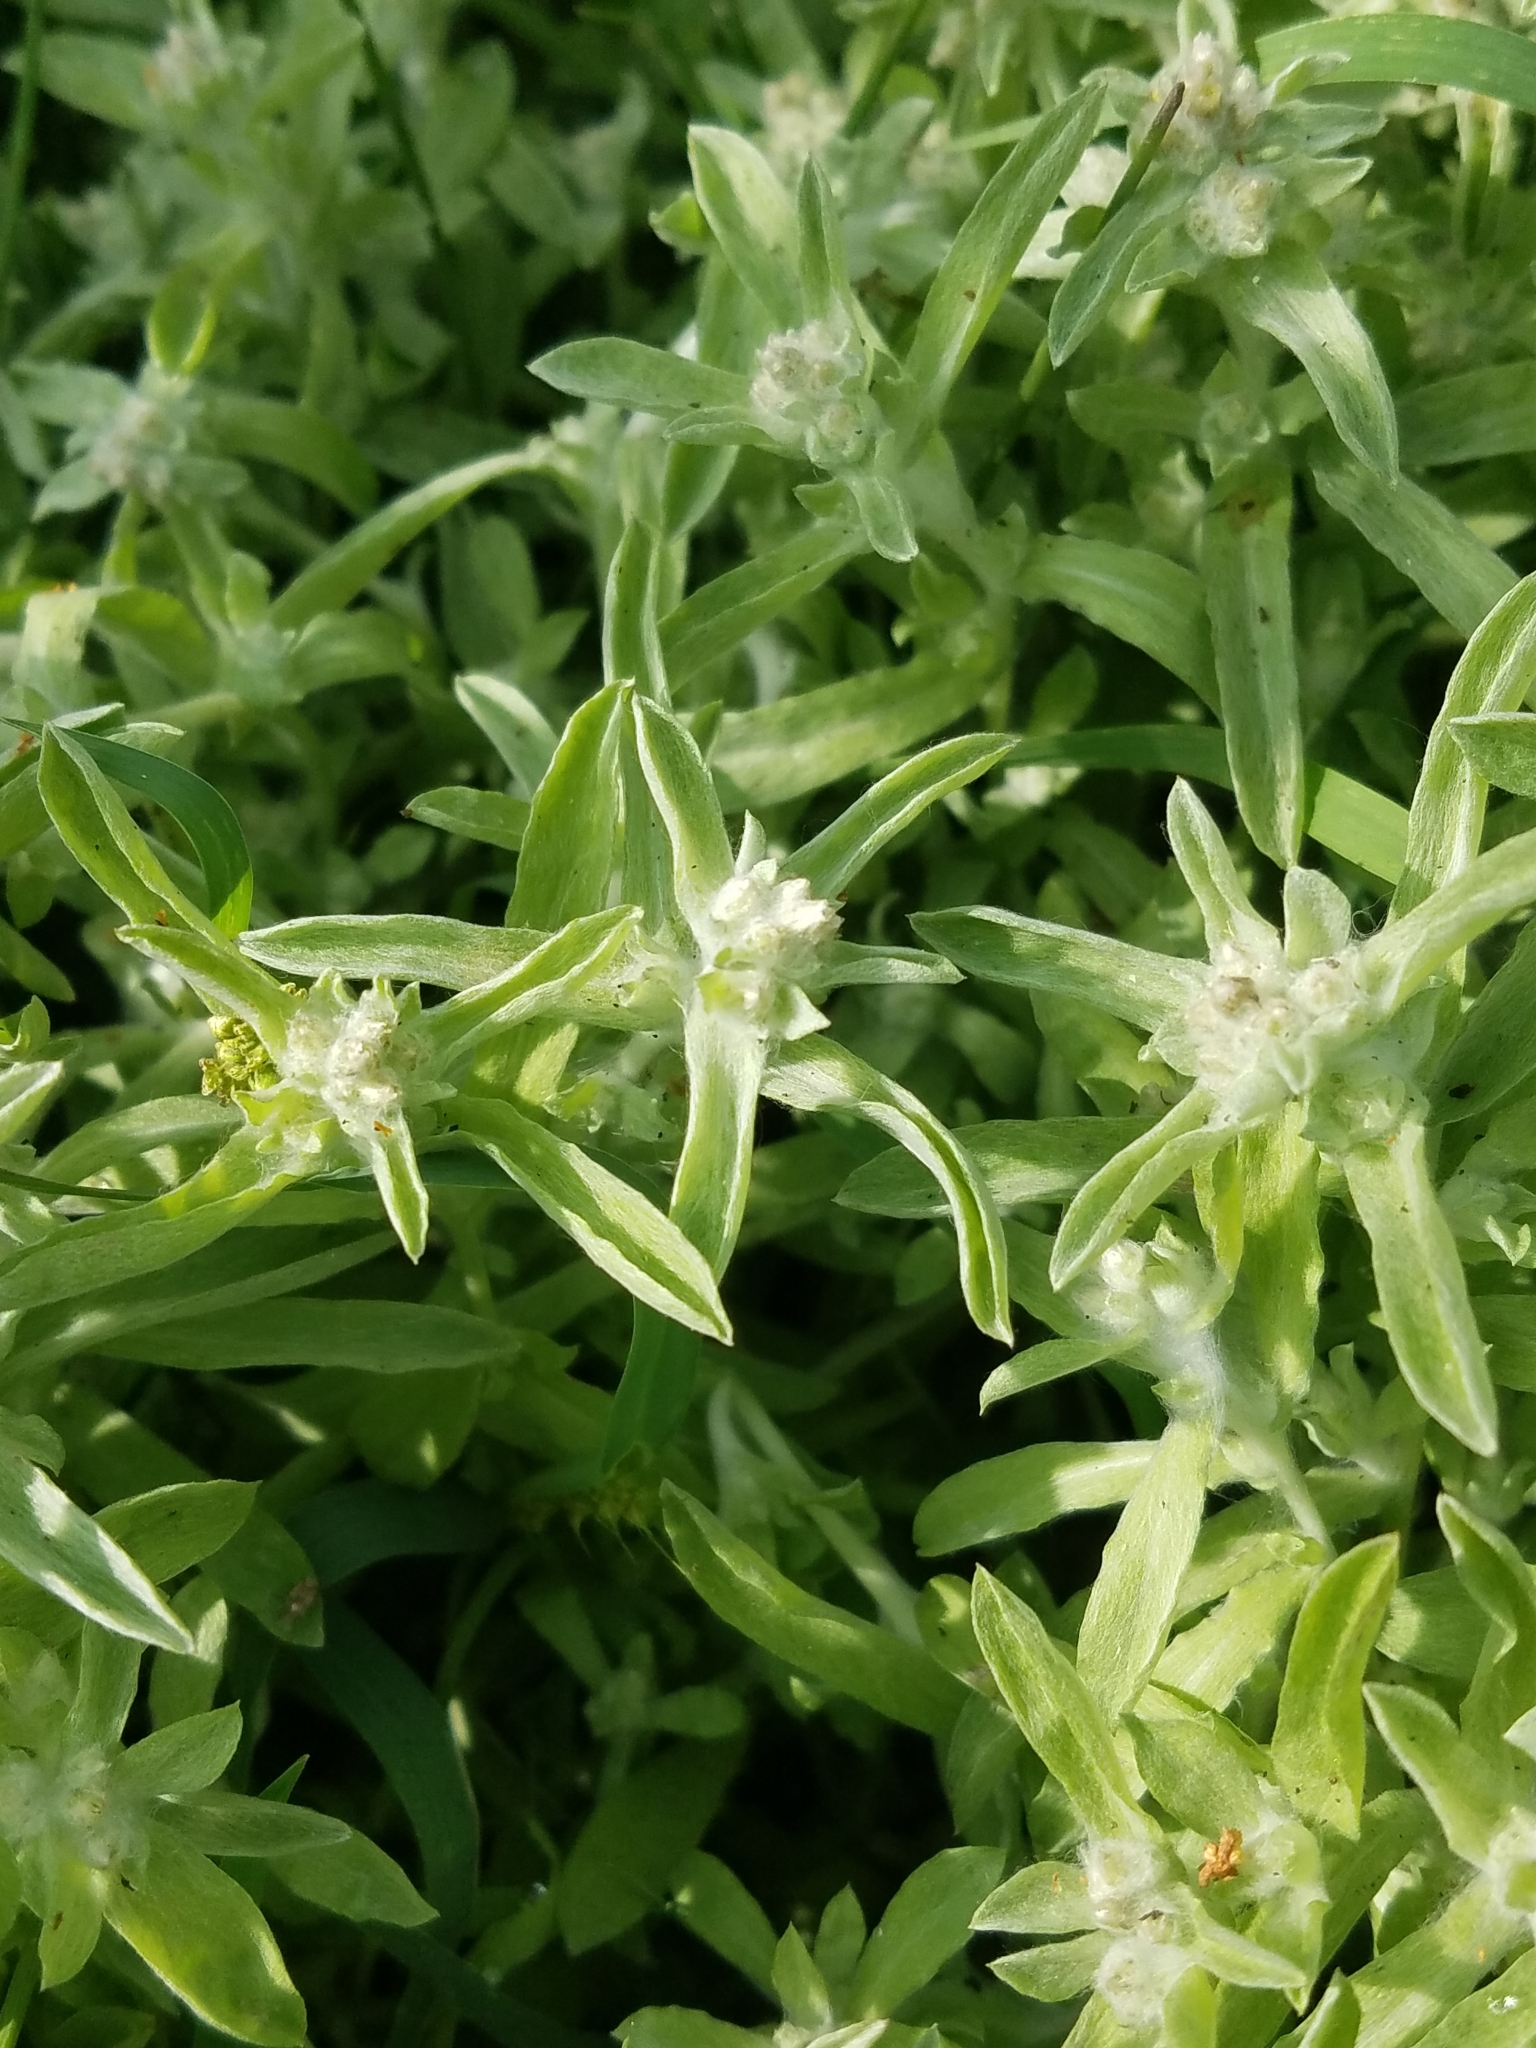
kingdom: Plantae
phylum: Tracheophyta
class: Magnoliopsida
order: Asterales
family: Asteraceae
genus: Gnaphalium
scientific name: Gnaphalium palustre
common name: Western marsh cudweed
